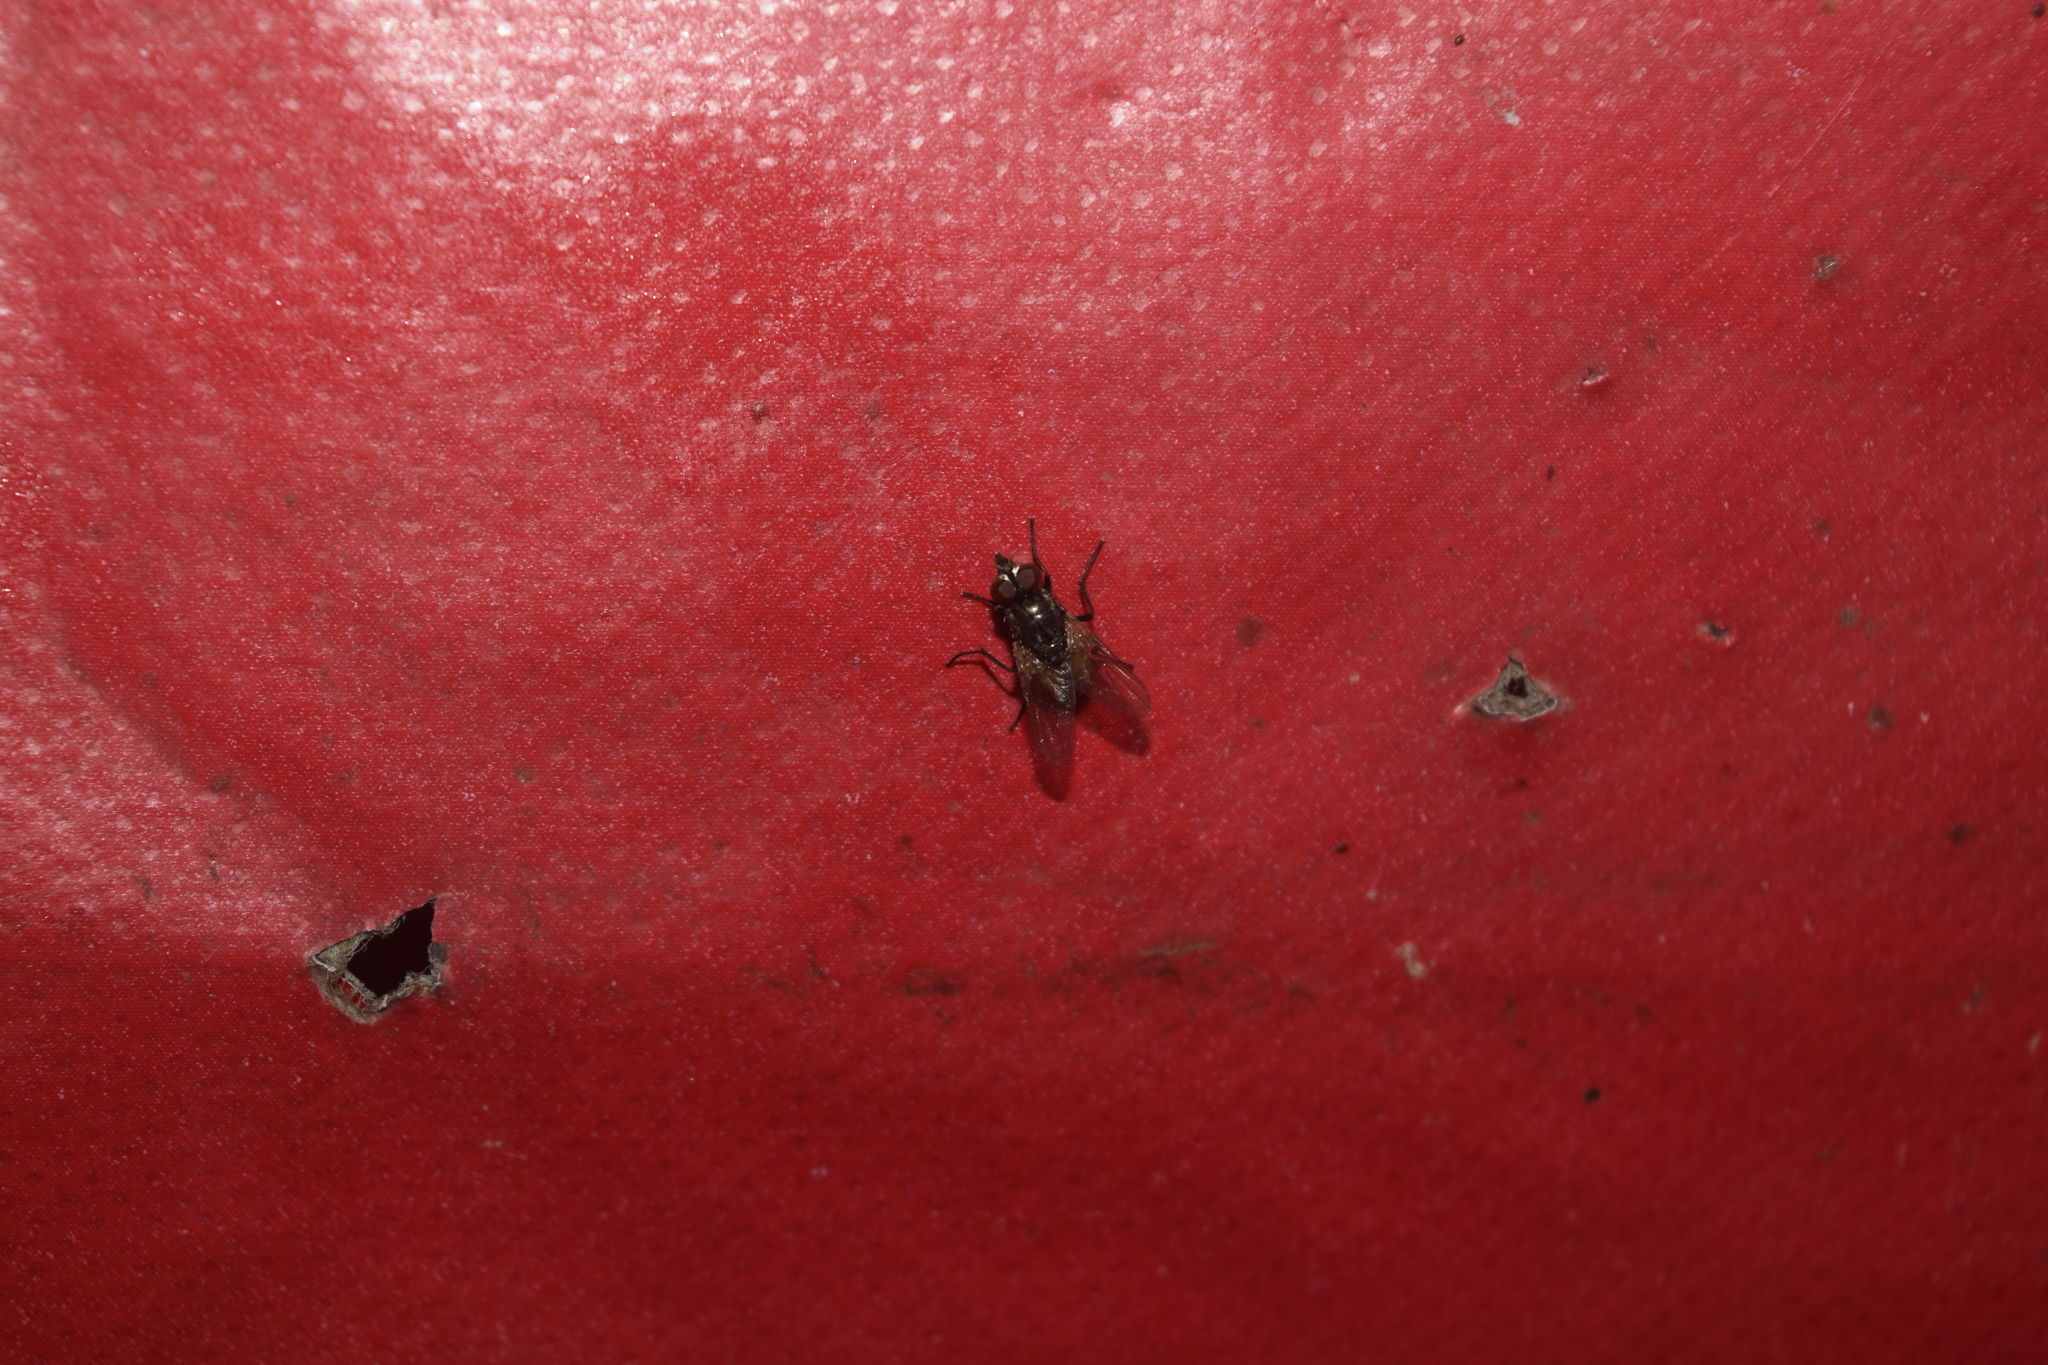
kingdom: Animalia
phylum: Arthropoda
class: Insecta
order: Diptera
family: Muscidae
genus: Musca
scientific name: Musca domestica
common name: House fly
